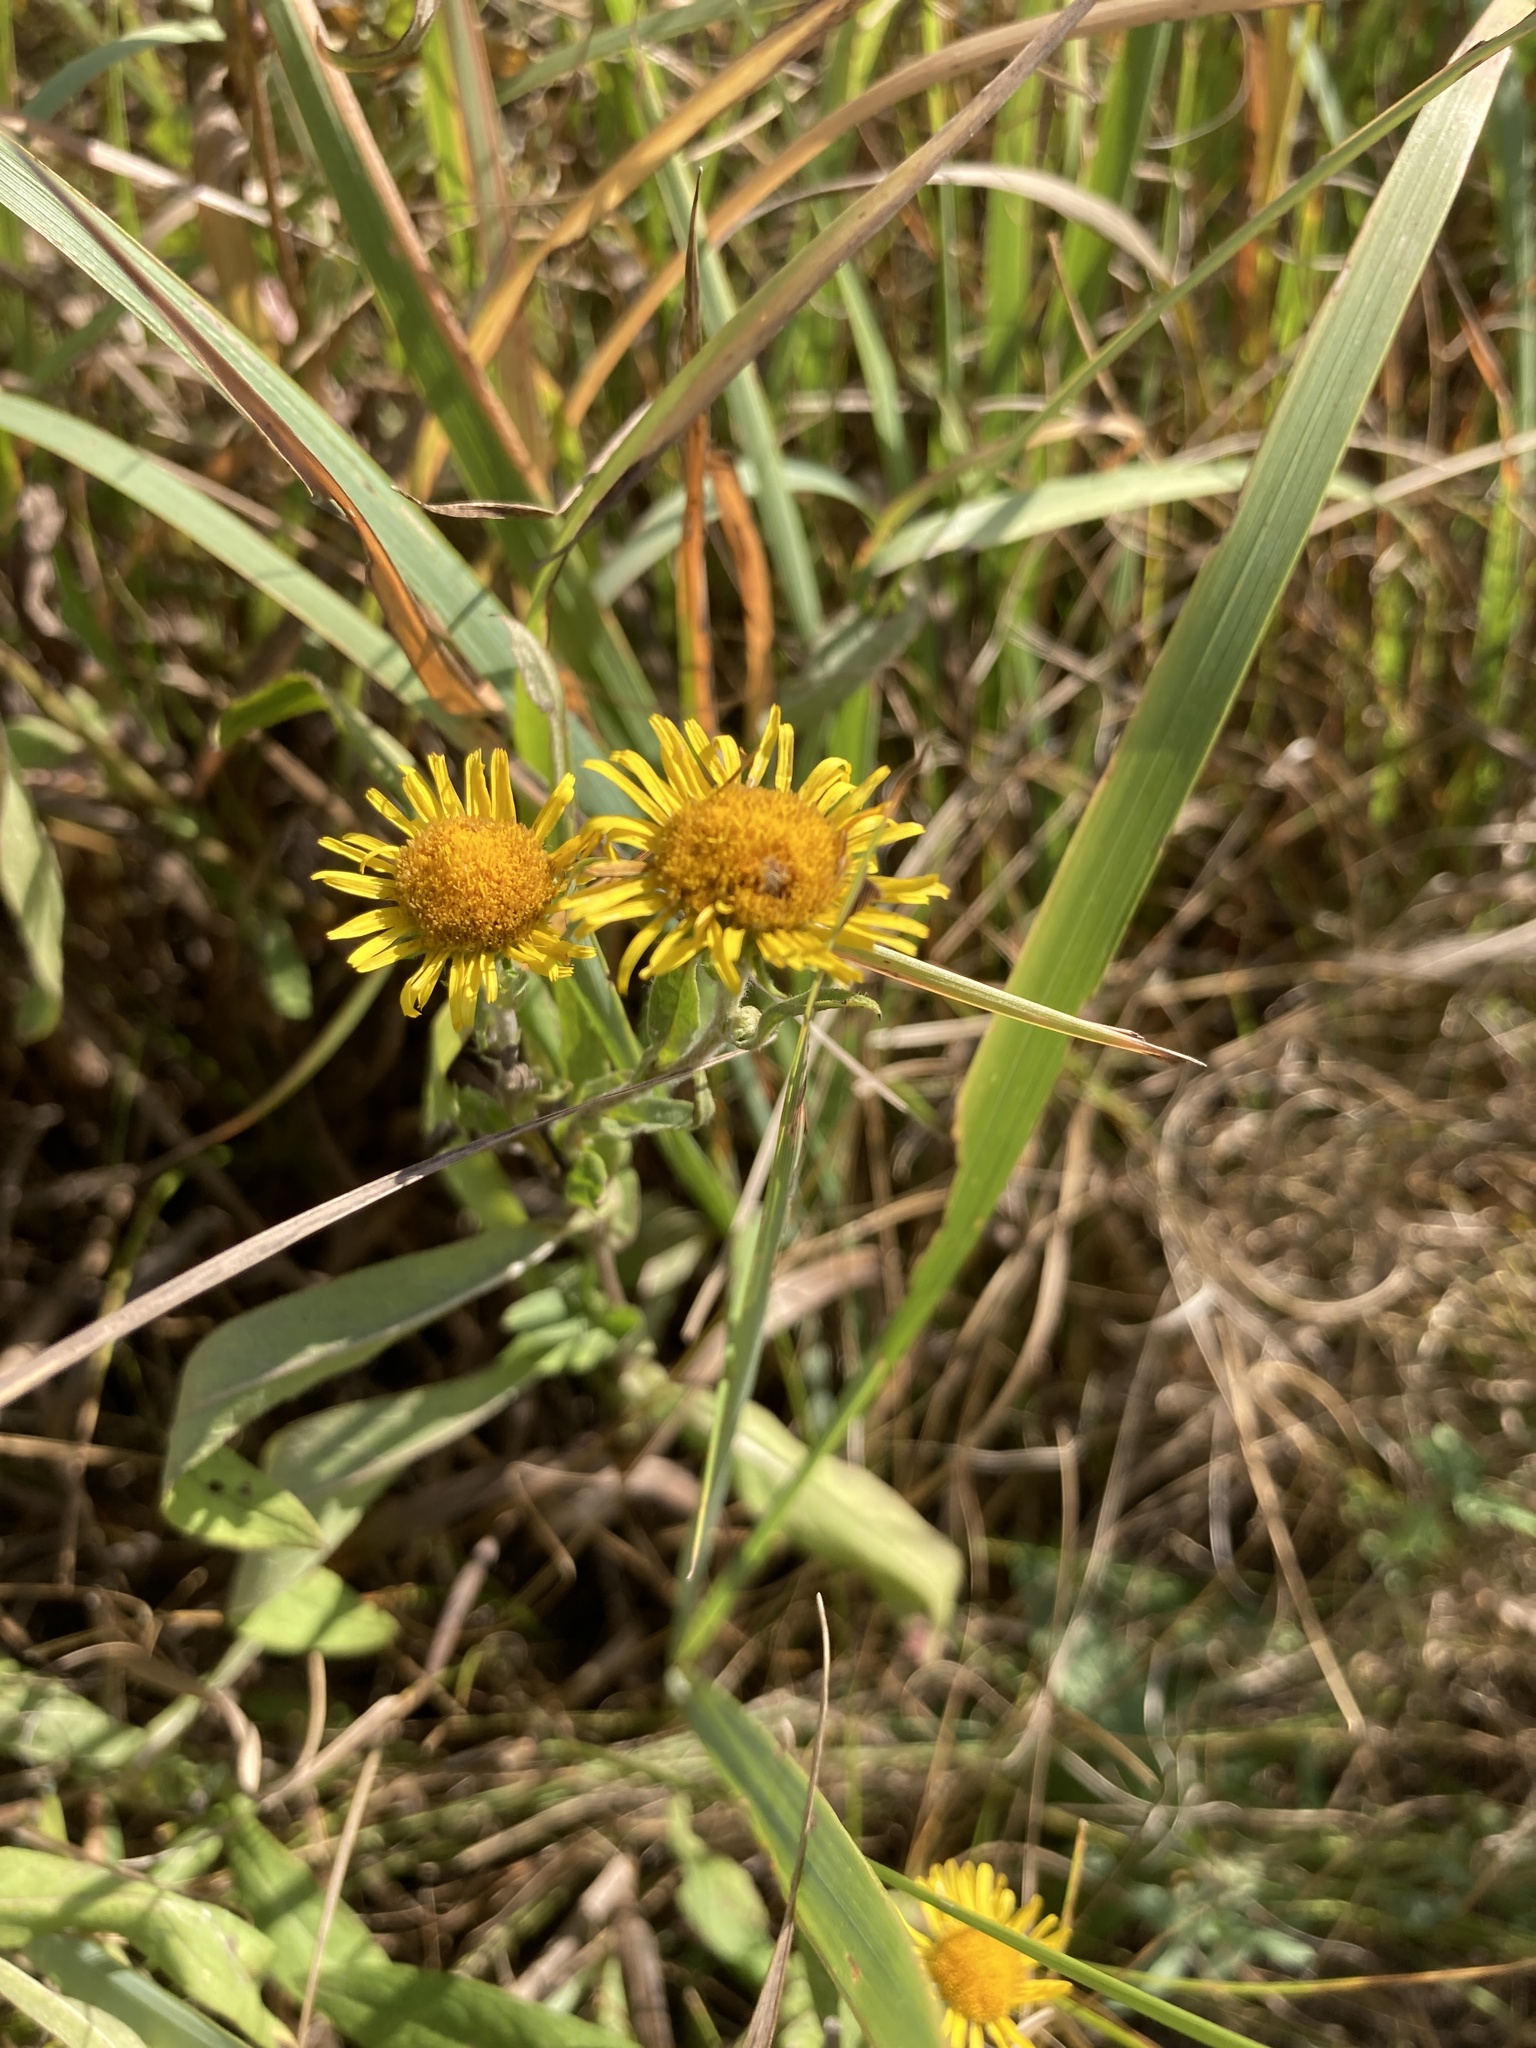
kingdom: Plantae
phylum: Tracheophyta
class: Magnoliopsida
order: Asterales
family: Asteraceae
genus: Pentanema
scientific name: Pentanema britannicum
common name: British elecampane
